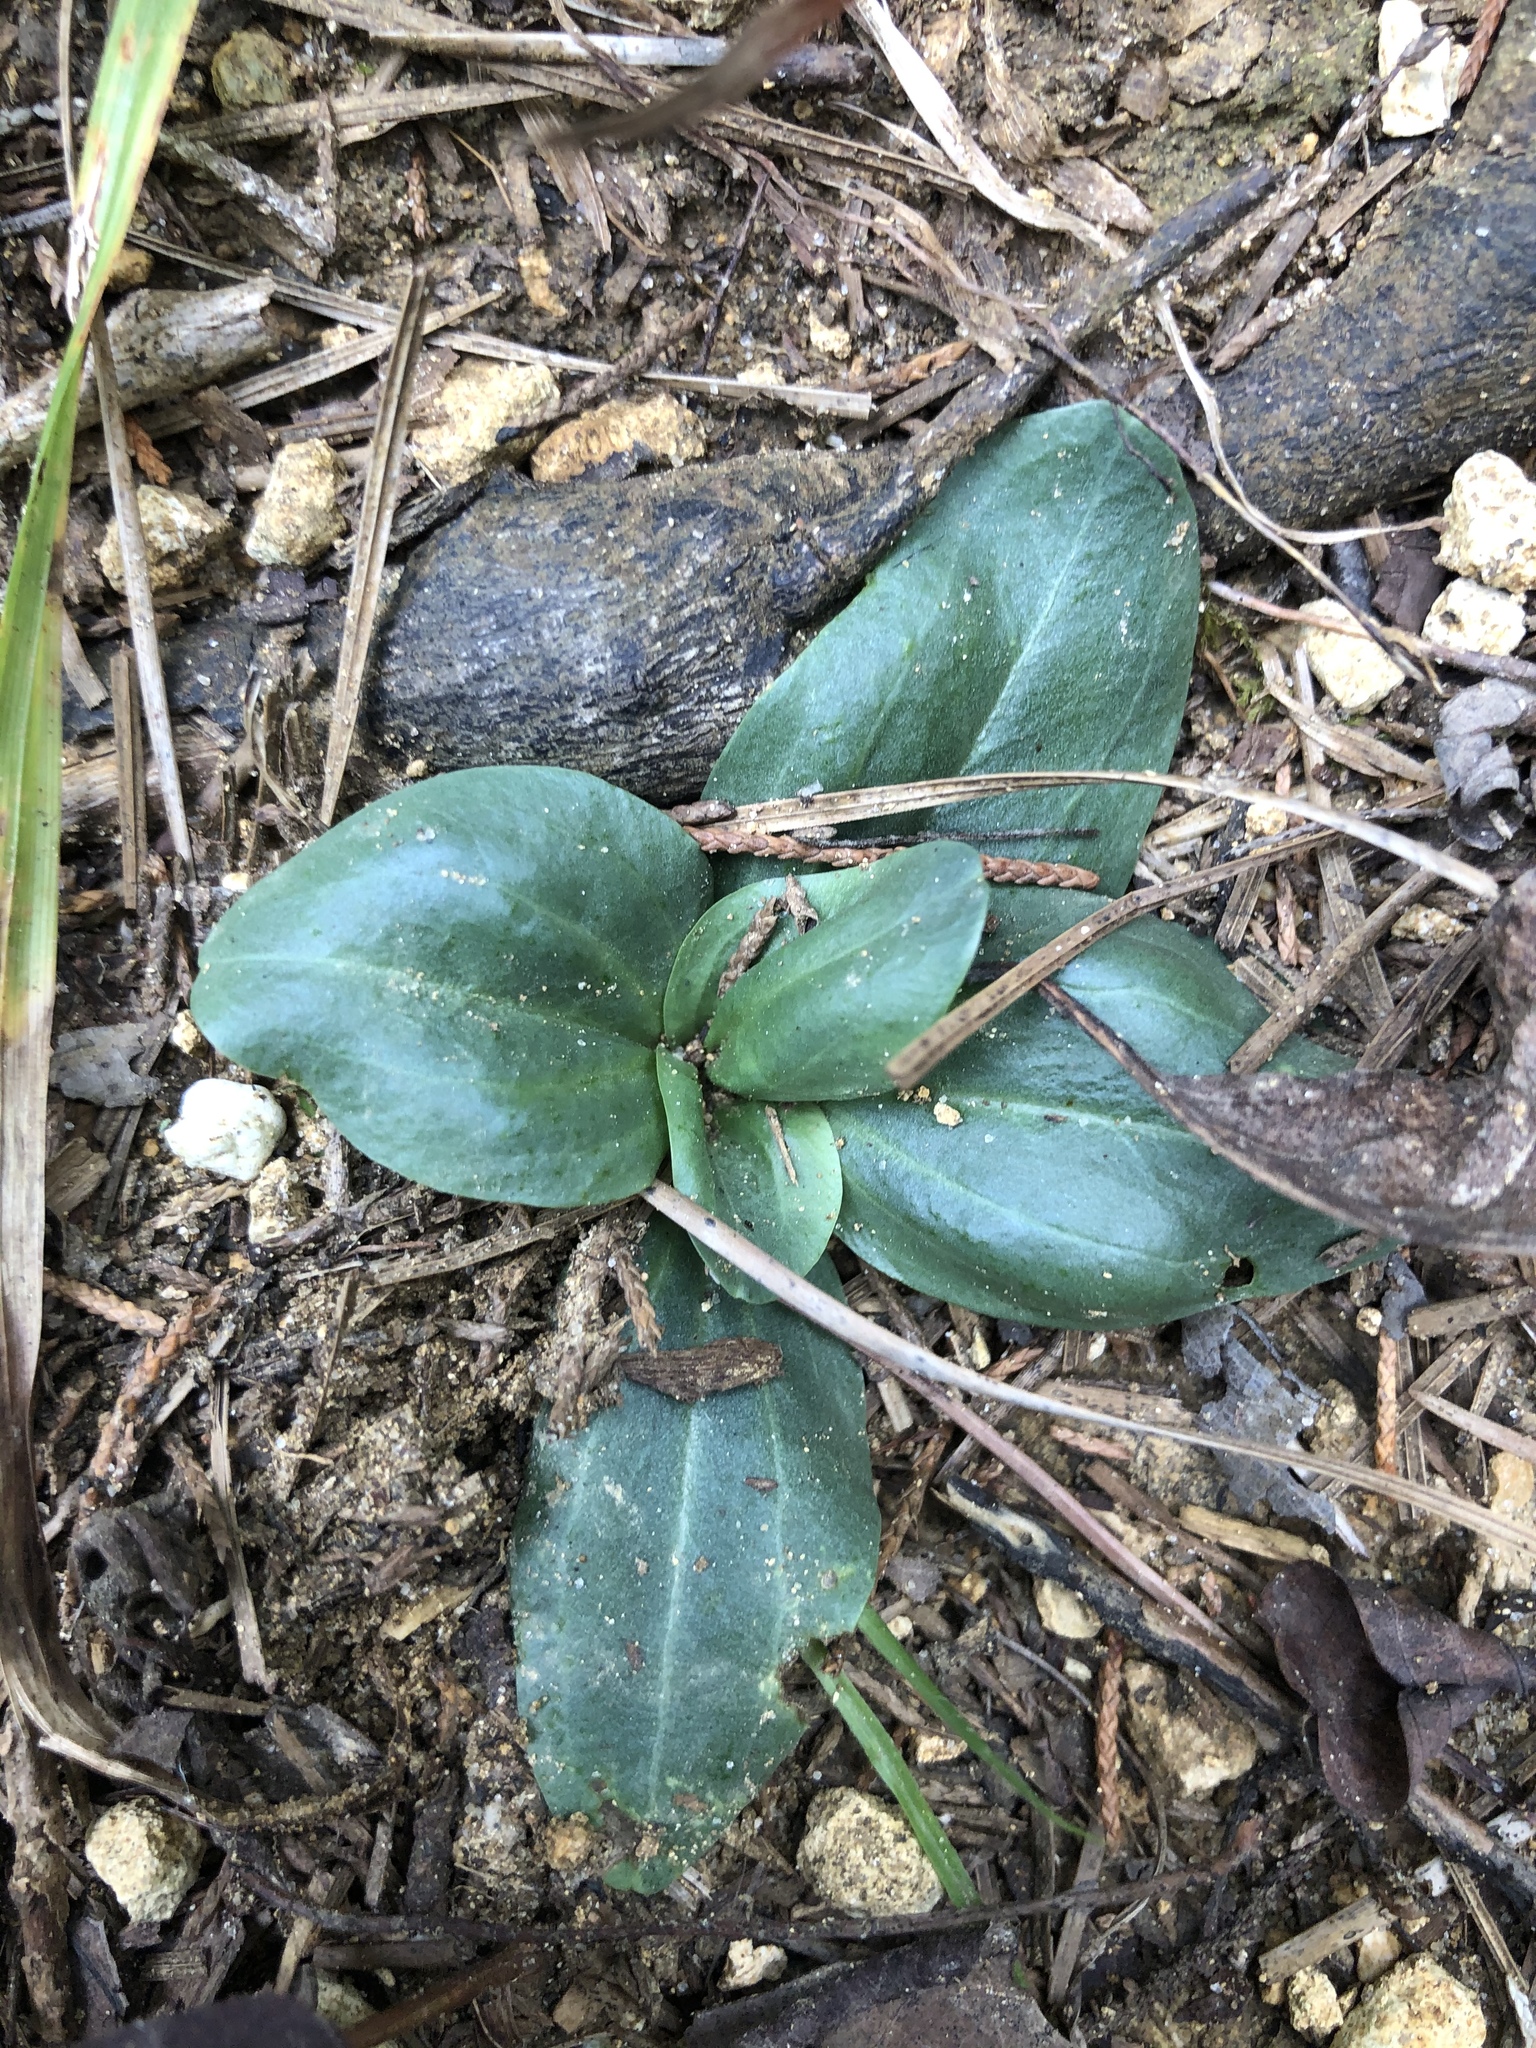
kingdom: Plantae
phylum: Tracheophyta
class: Magnoliopsida
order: Gentianales
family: Gentianaceae
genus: Sabatia
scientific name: Sabatia angularis
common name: Rose-pink
